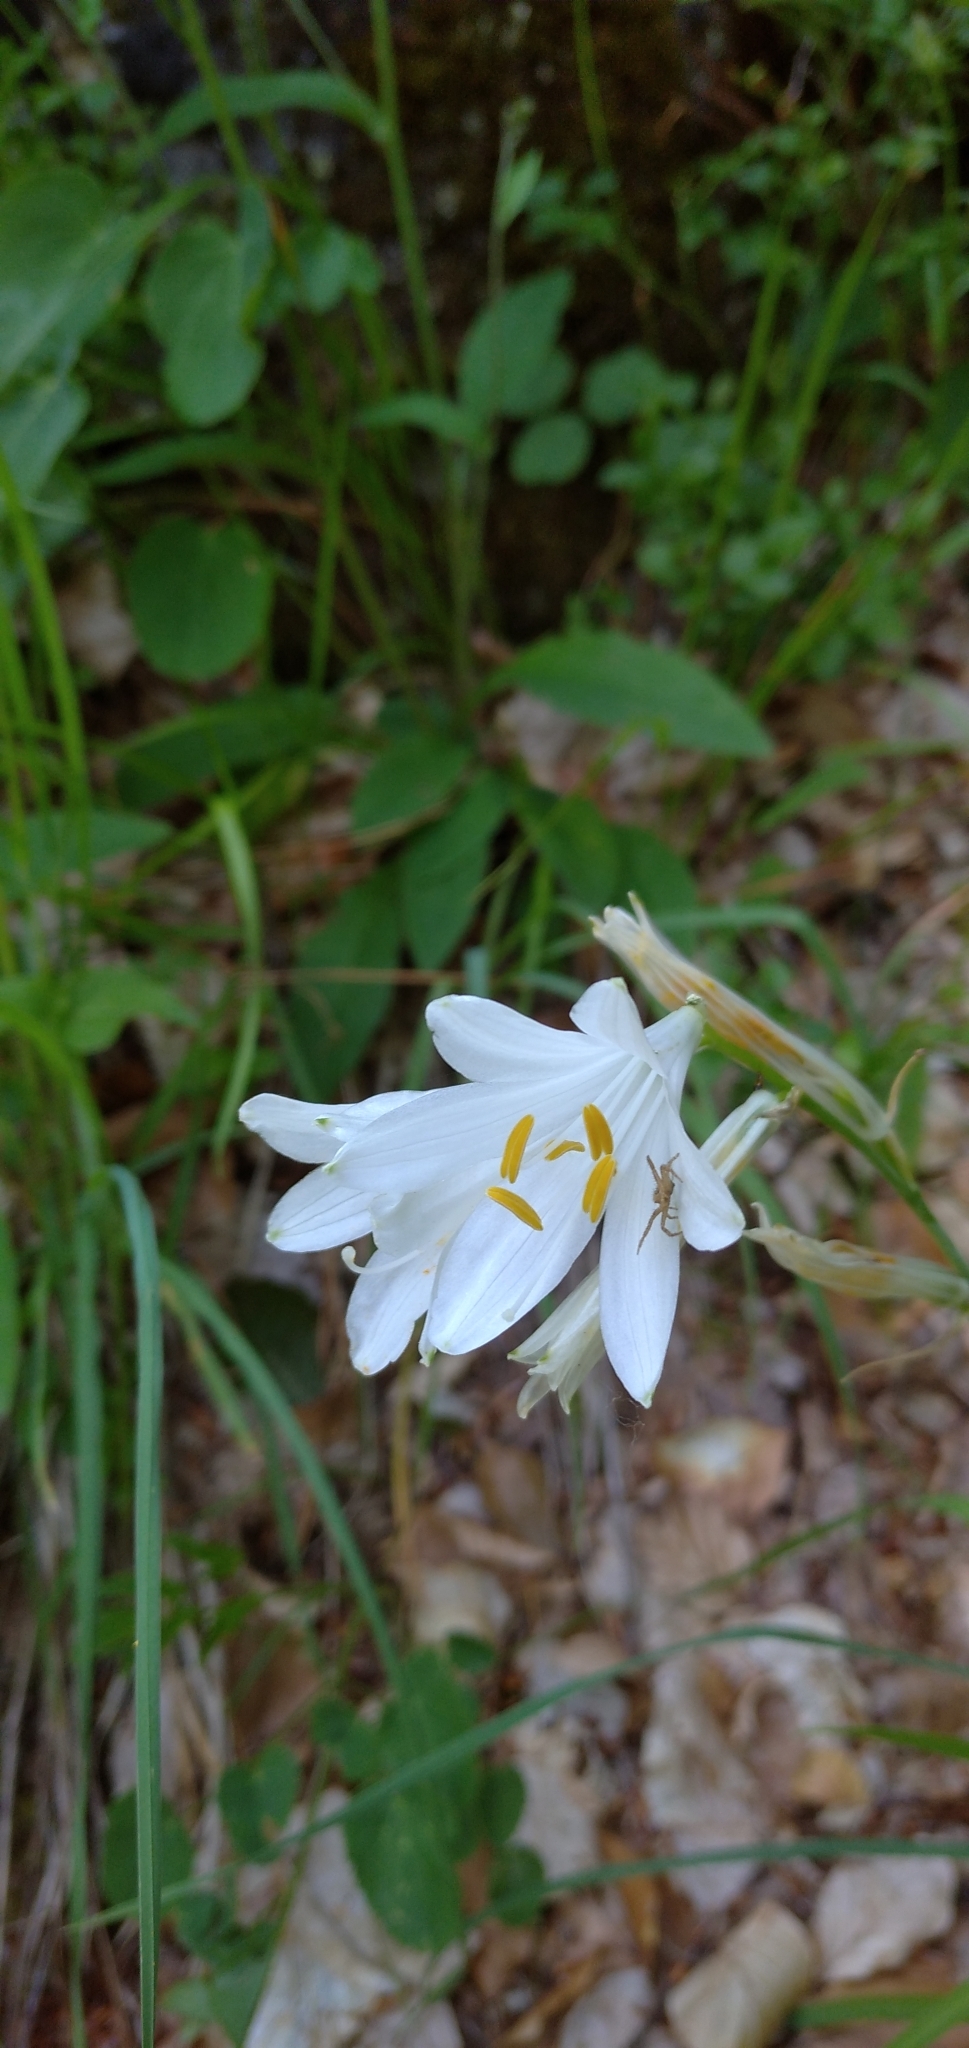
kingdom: Plantae
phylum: Tracheophyta
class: Liliopsida
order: Asparagales
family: Asparagaceae
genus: Paradisea
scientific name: Paradisea liliastrum
